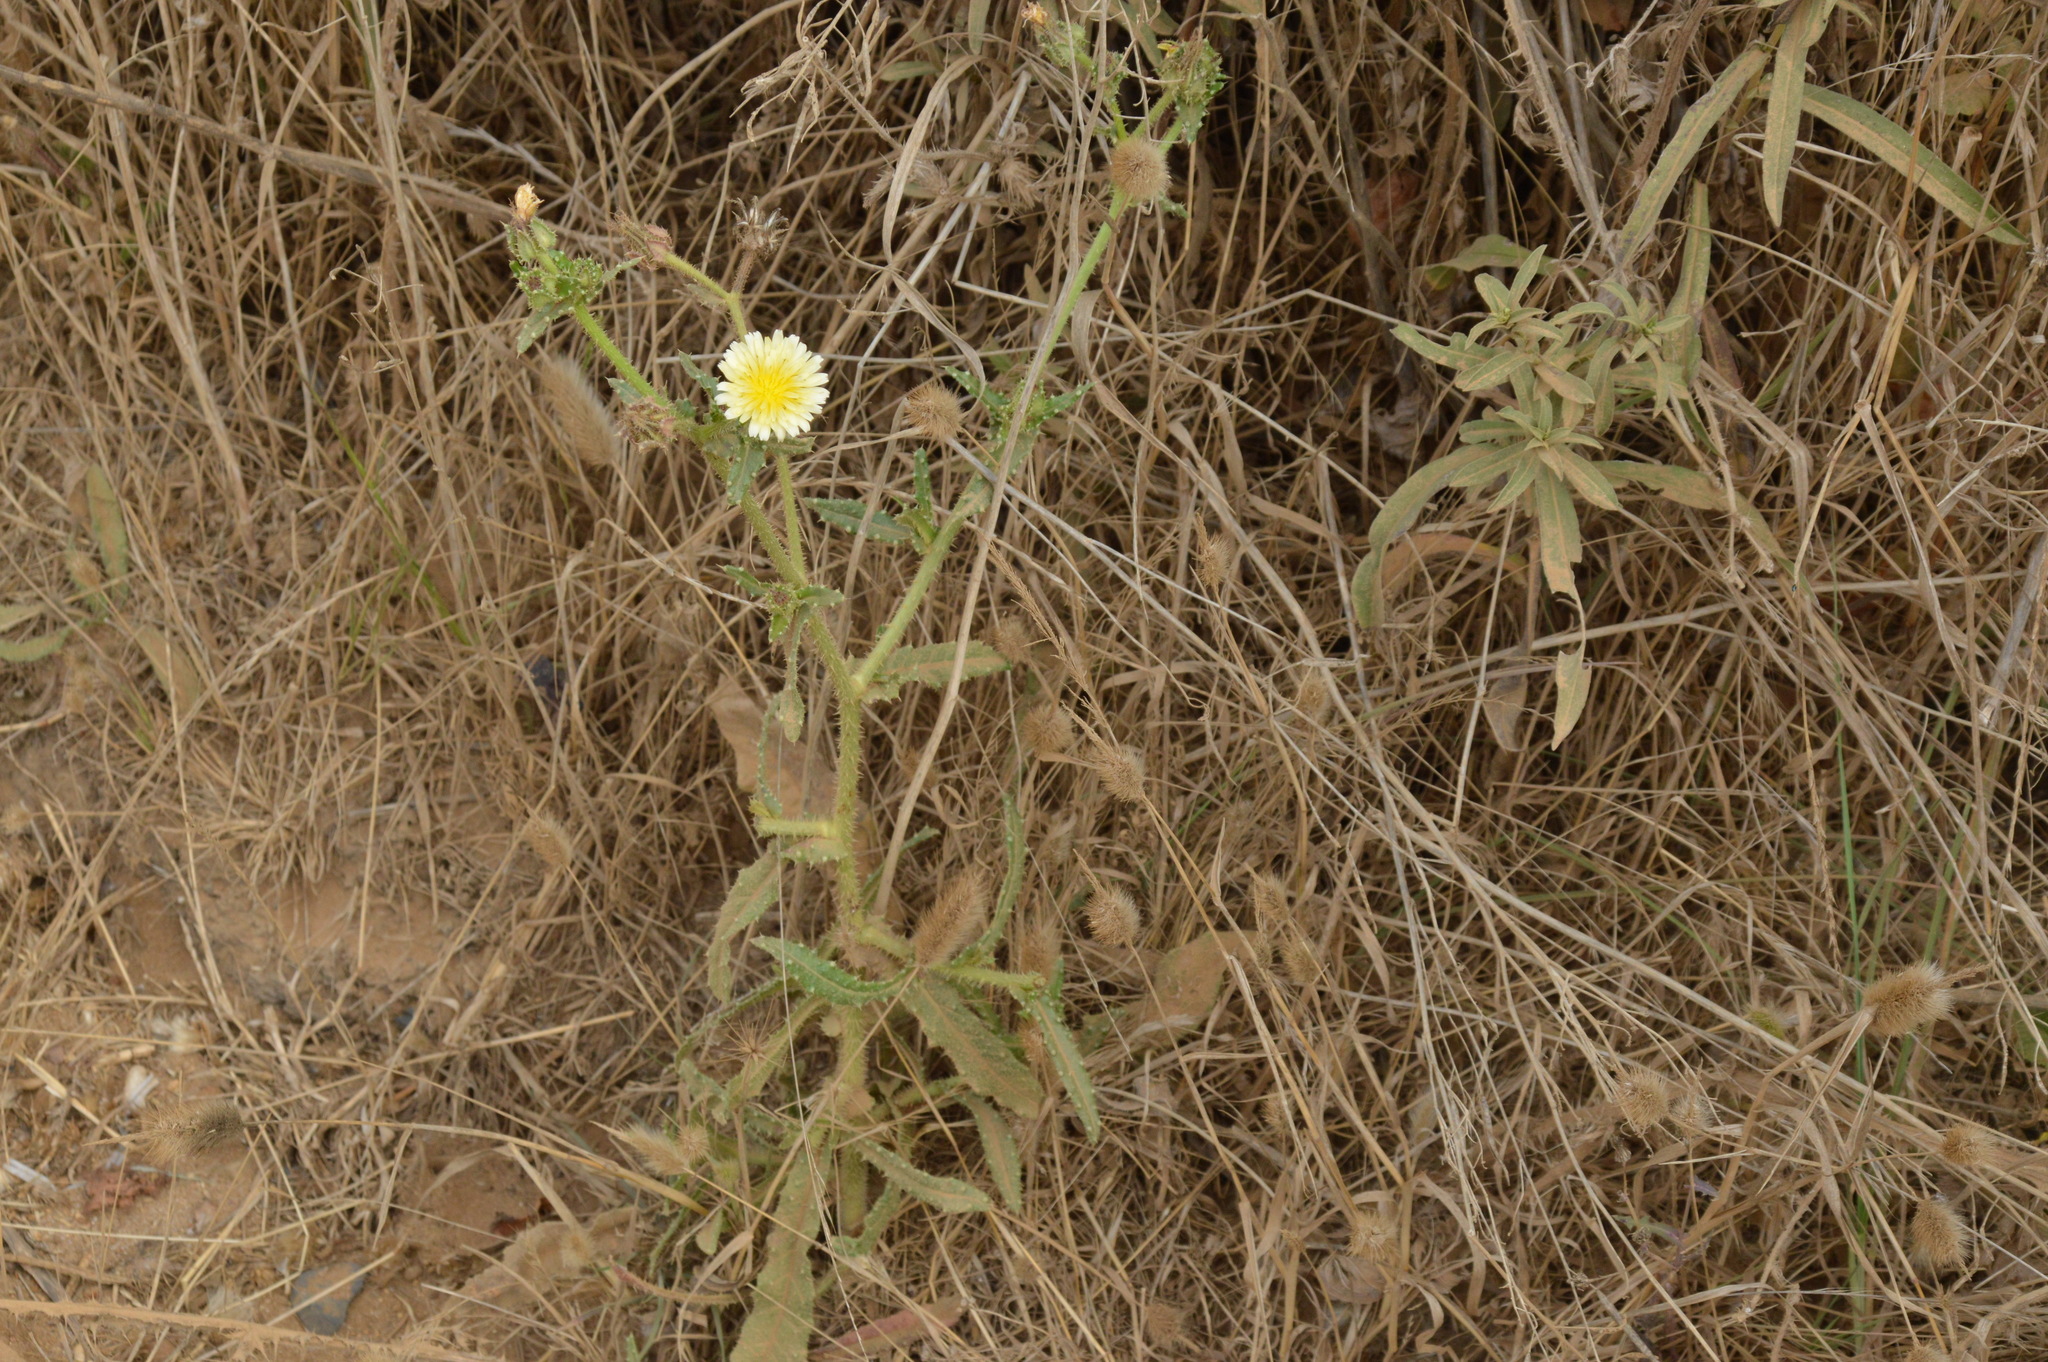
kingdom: Plantae
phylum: Tracheophyta
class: Magnoliopsida
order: Asterales
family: Asteraceae
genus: Helminthotheca
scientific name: Helminthotheca echioides
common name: Ox-tongue
